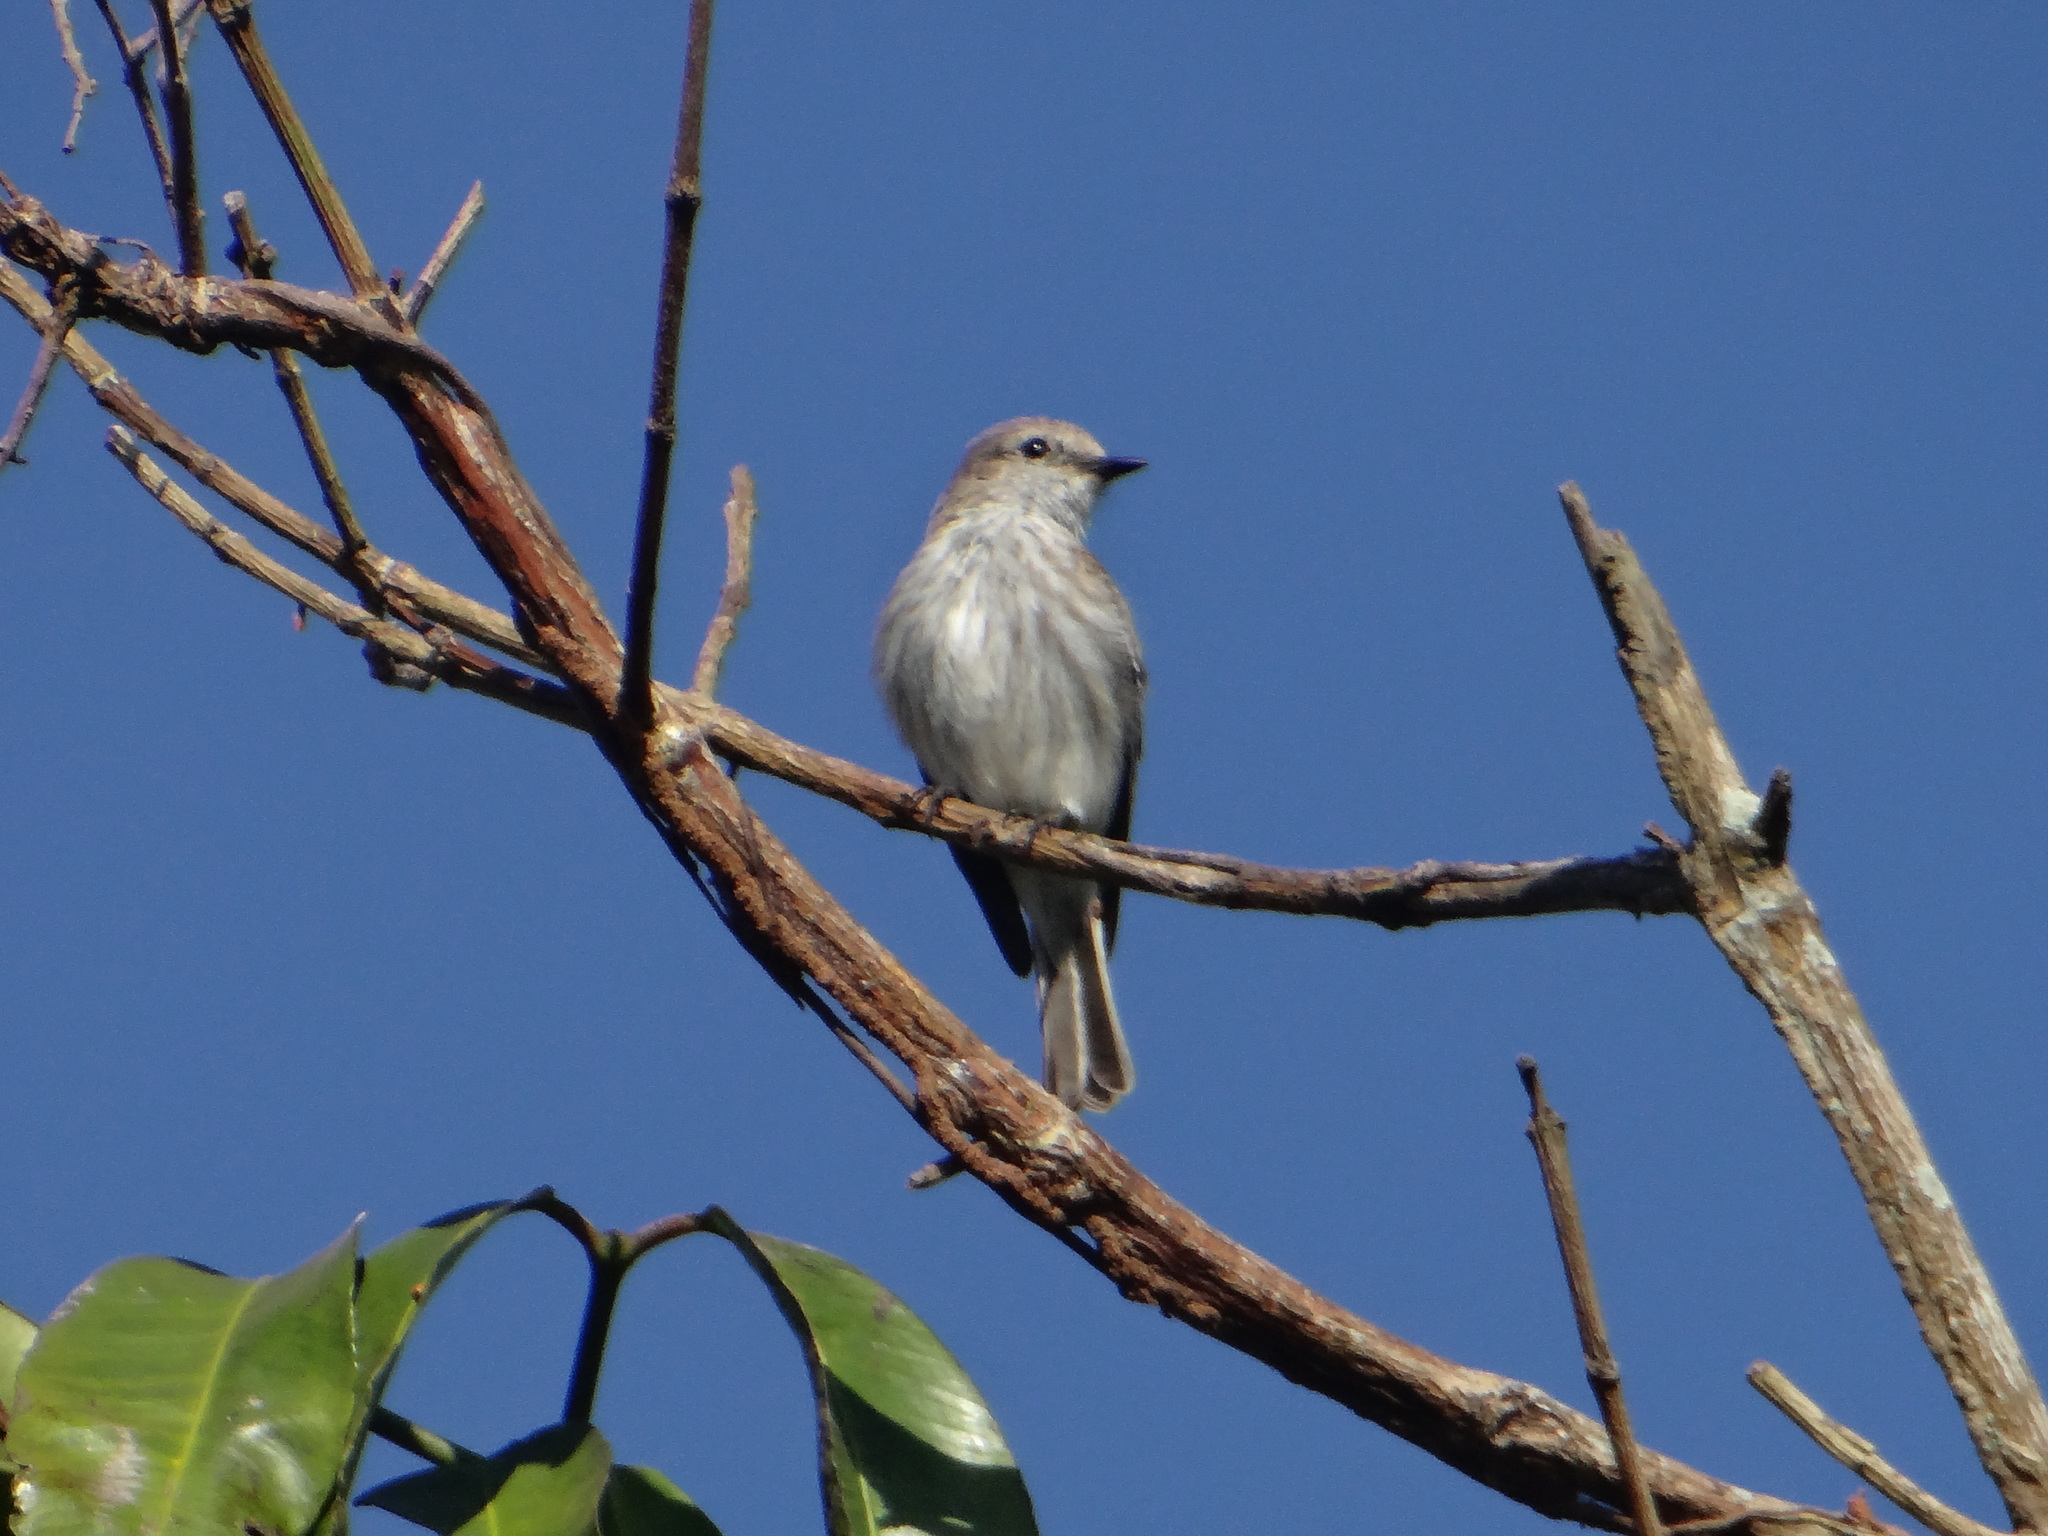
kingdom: Animalia
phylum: Chordata
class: Aves
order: Passeriformes
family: Tyrannidae
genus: Pyrocephalus
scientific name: Pyrocephalus rubinus
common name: Vermilion flycatcher
